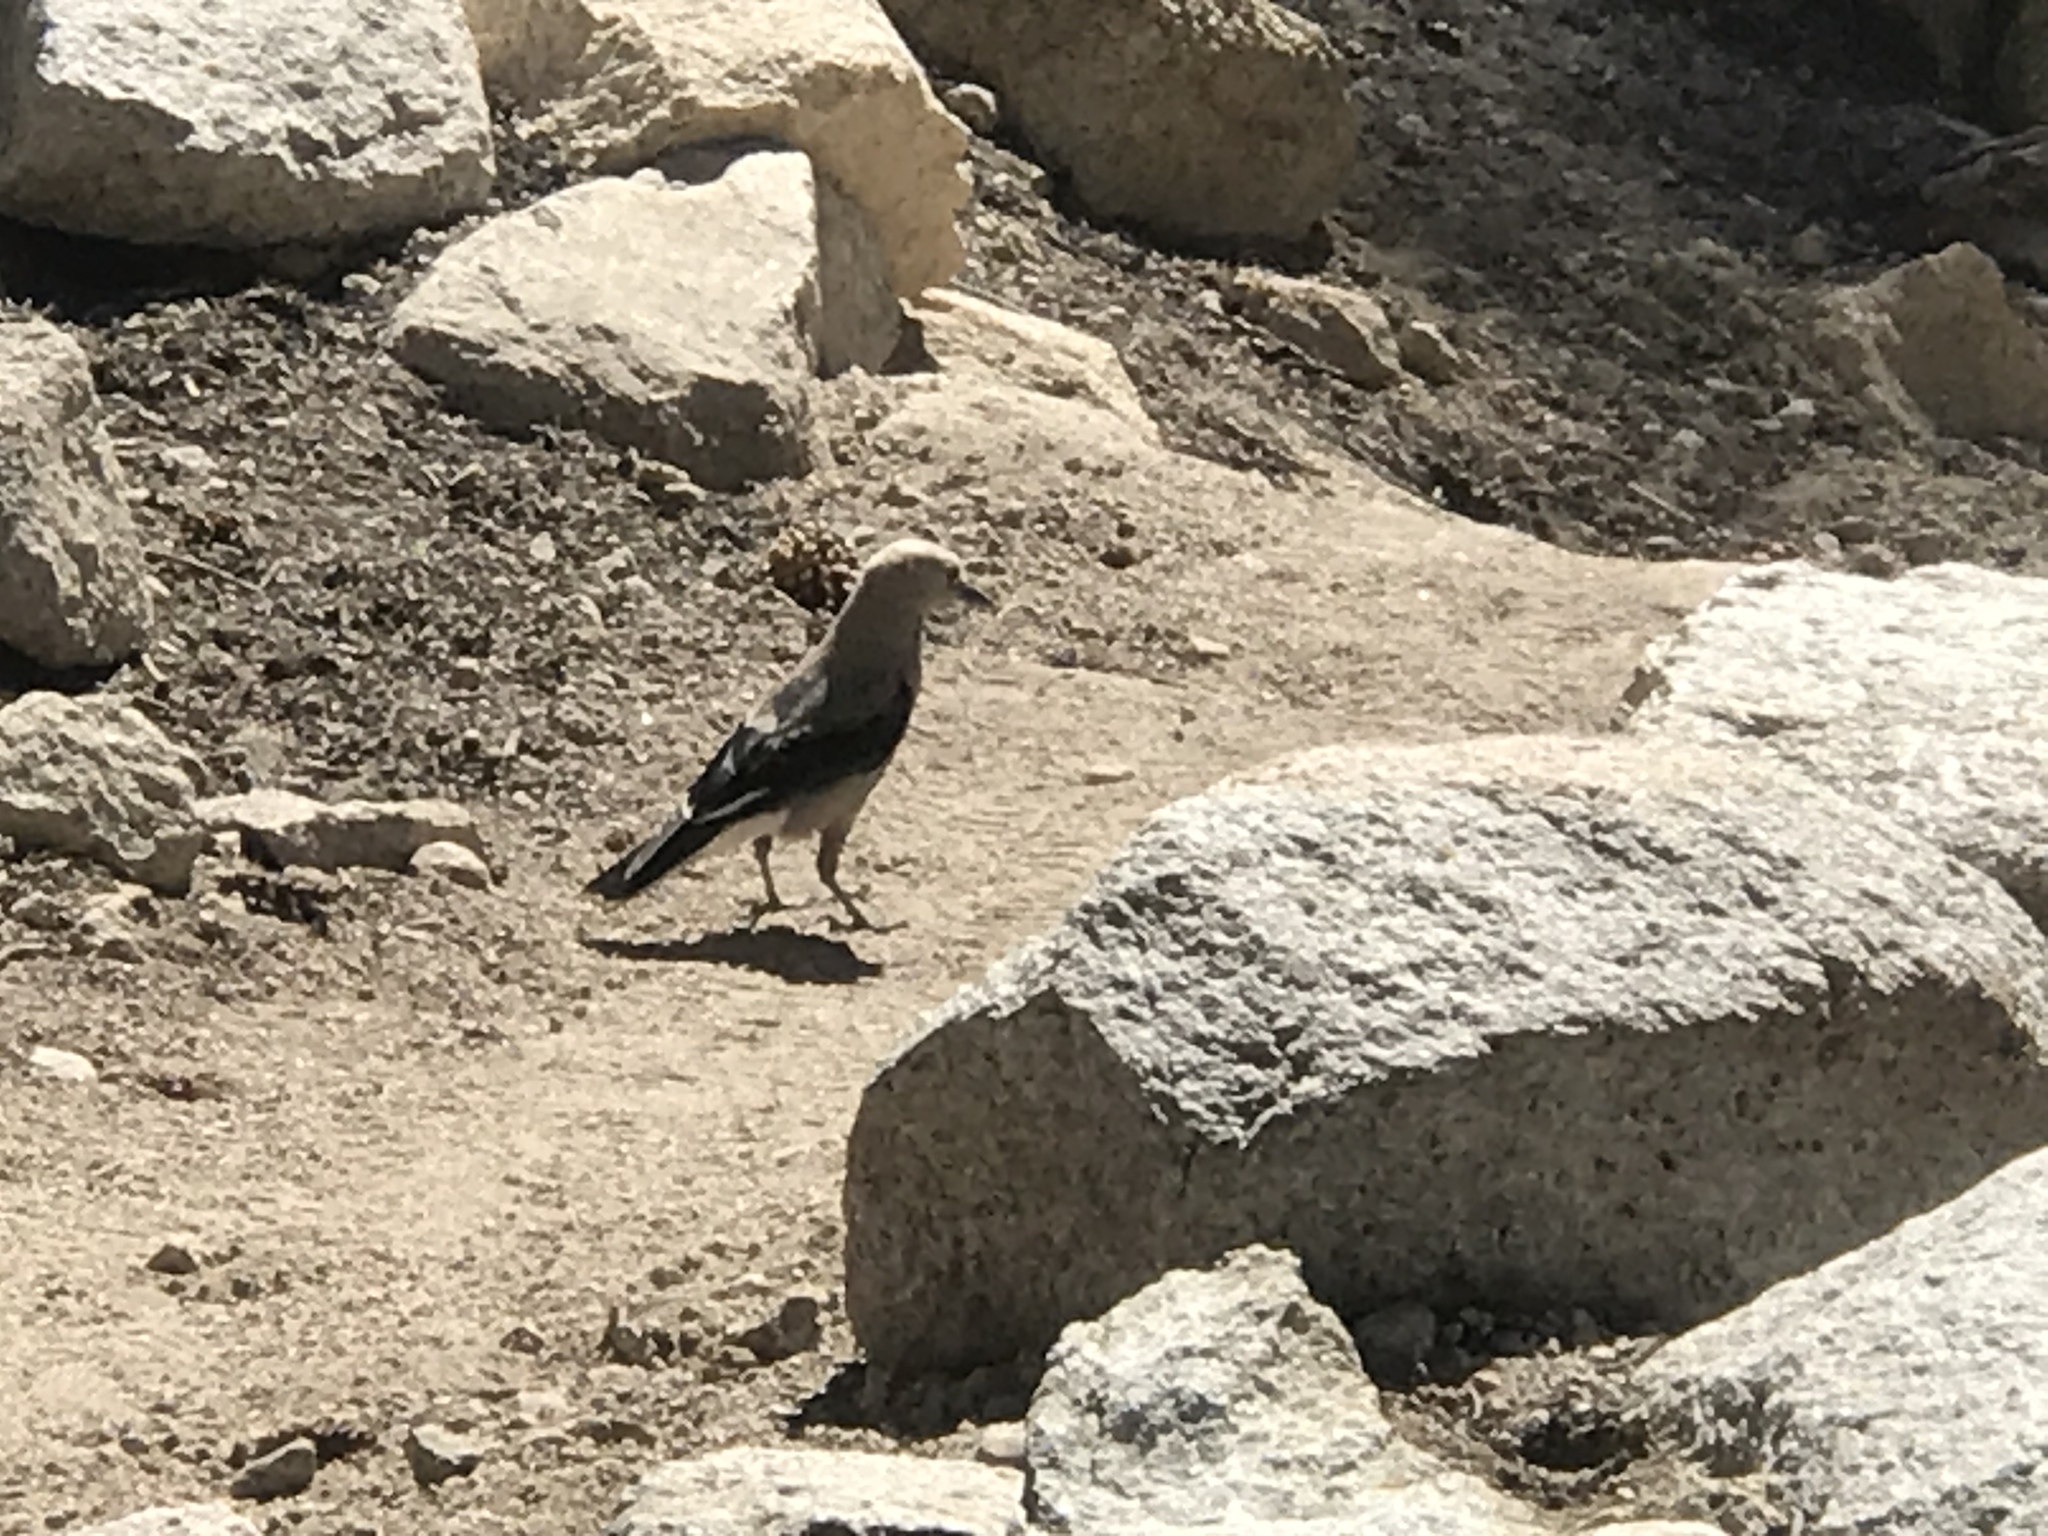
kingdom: Animalia
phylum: Chordata
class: Aves
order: Passeriformes
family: Corvidae
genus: Nucifraga
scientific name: Nucifraga columbiana
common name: Clark's nutcracker
